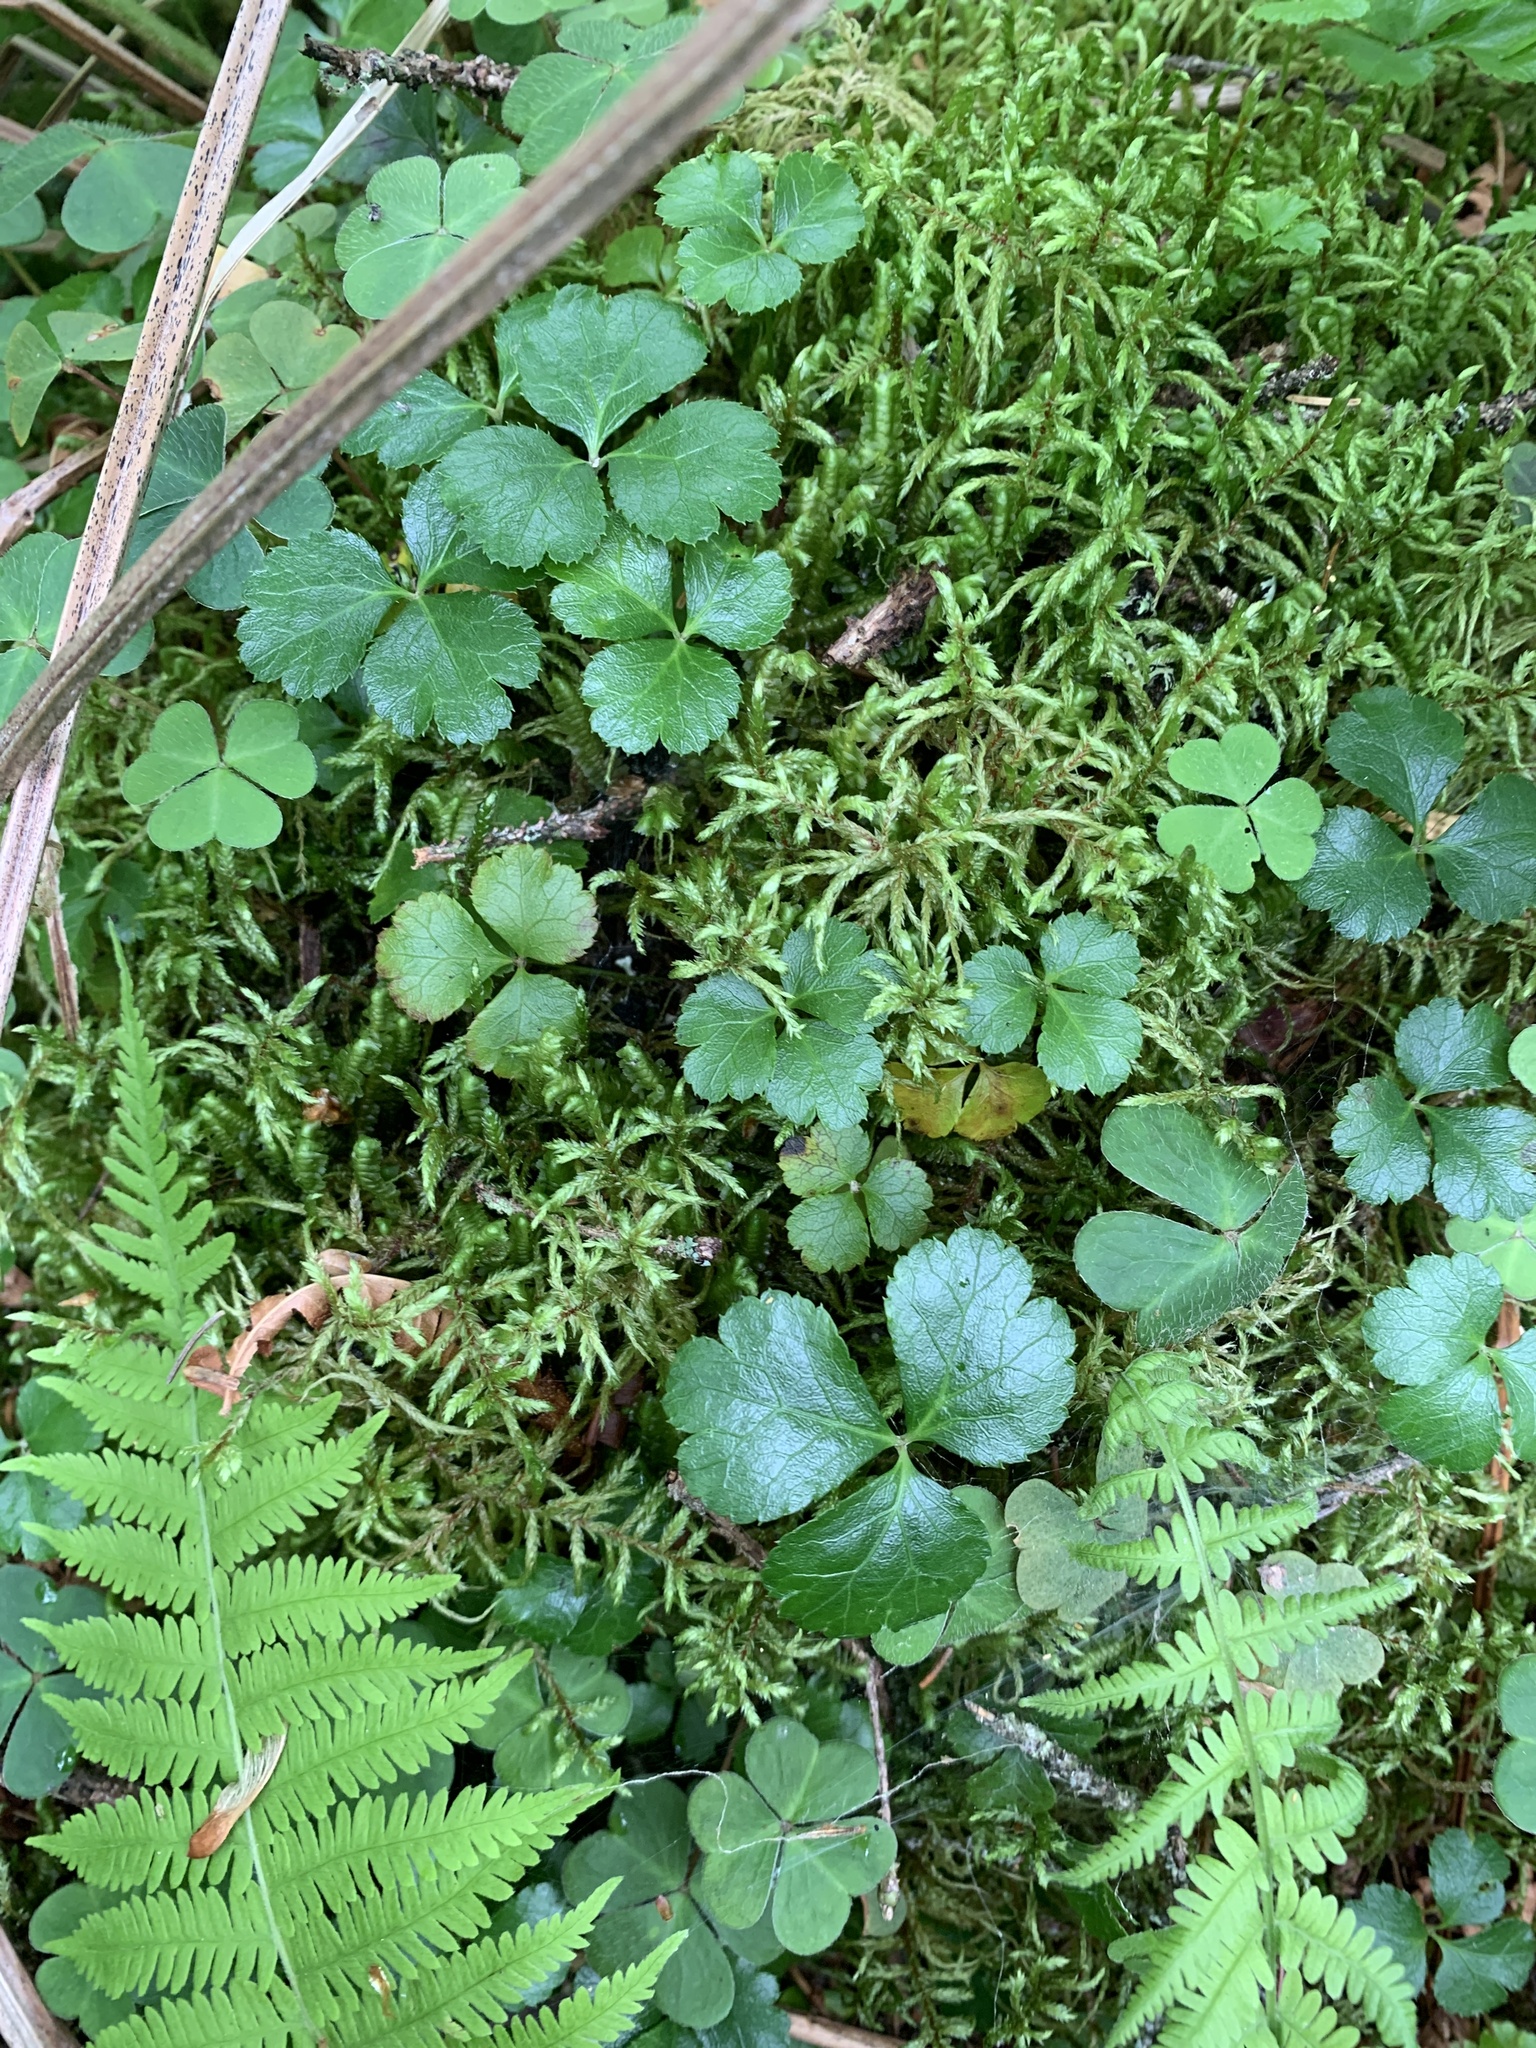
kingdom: Plantae
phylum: Tracheophyta
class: Magnoliopsida
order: Ranunculales
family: Ranunculaceae
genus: Coptis
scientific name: Coptis trifolia
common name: Canker-root
